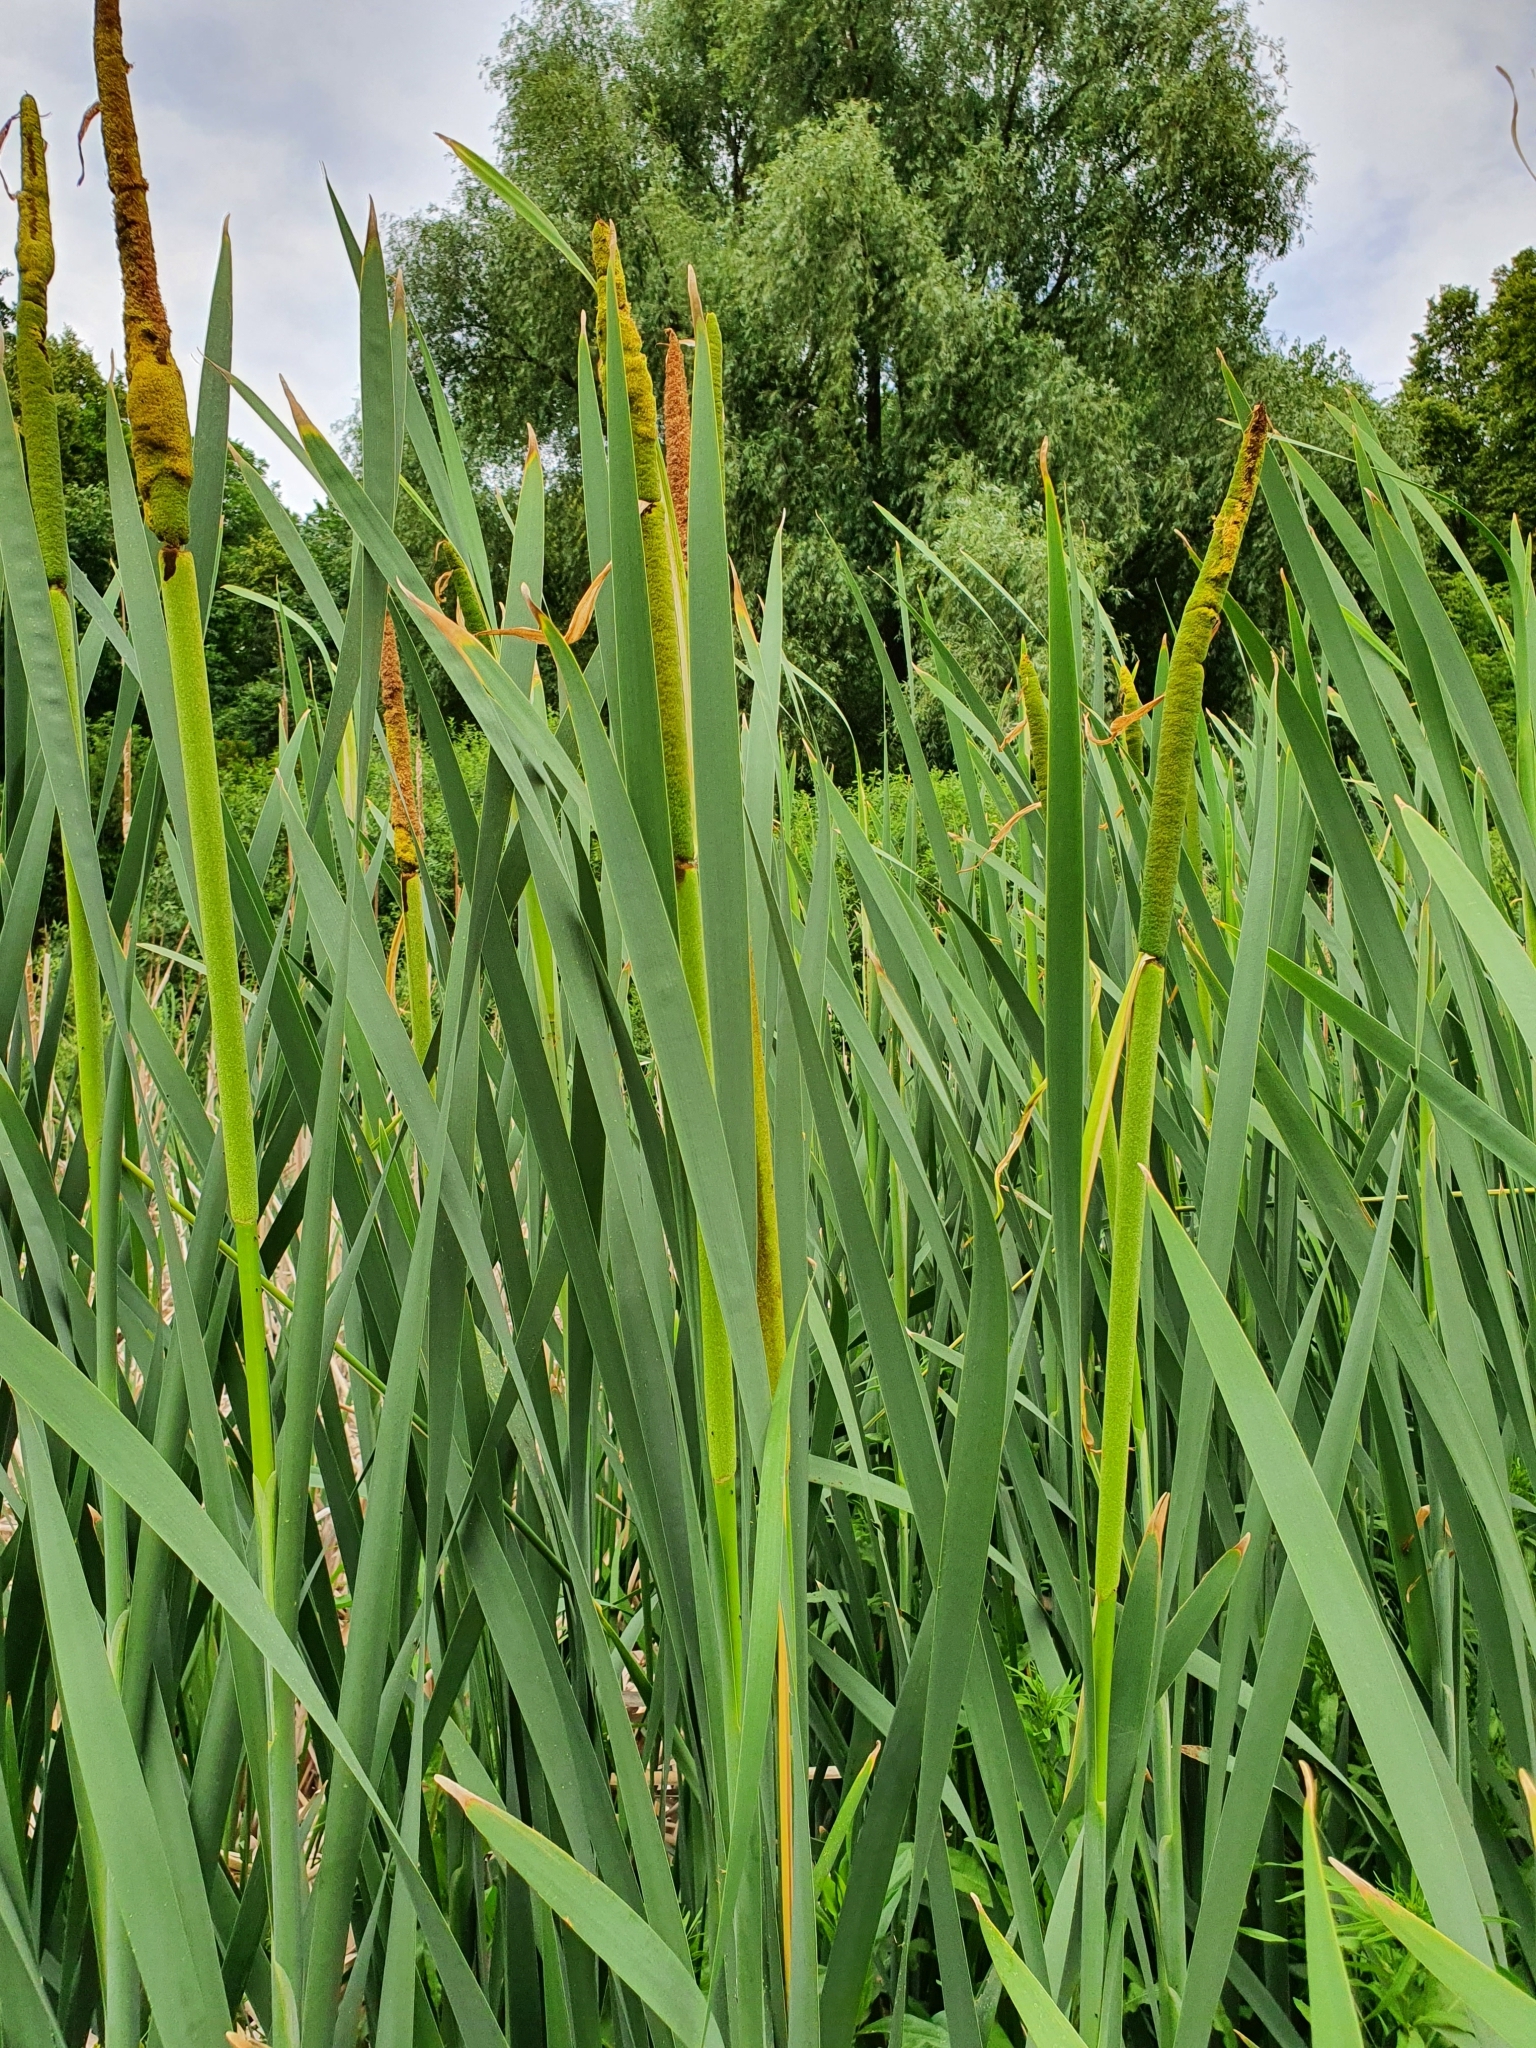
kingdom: Plantae
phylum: Tracheophyta
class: Liliopsida
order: Poales
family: Typhaceae
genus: Typha
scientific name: Typha latifolia
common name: Broadleaf cattail
